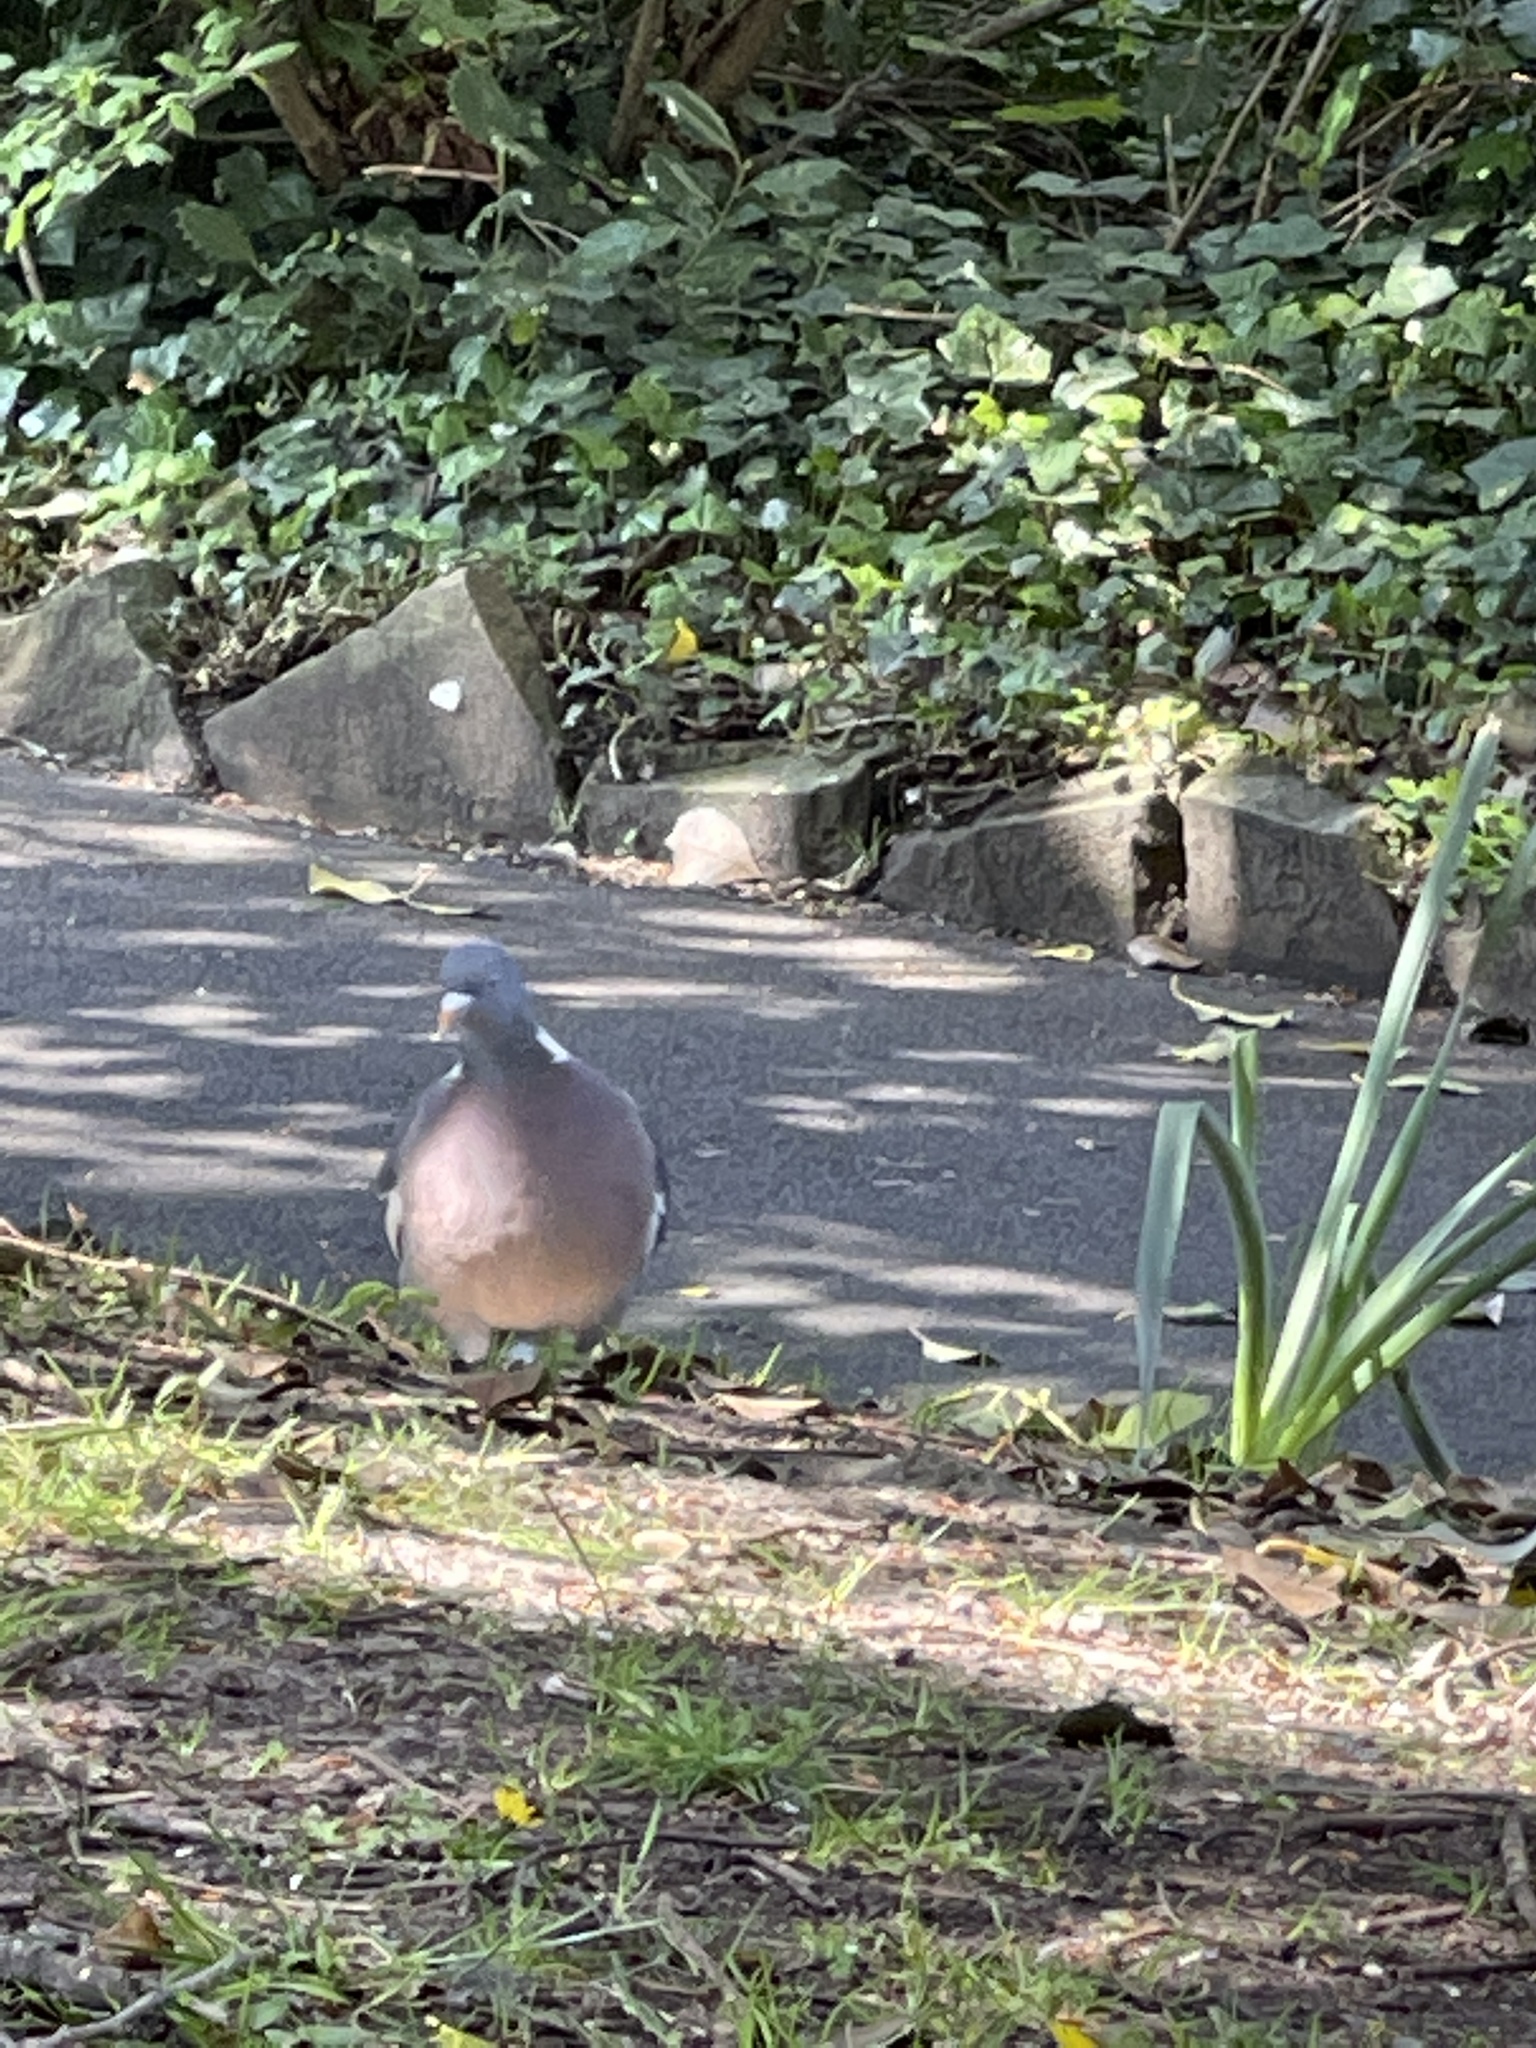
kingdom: Animalia
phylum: Chordata
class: Aves
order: Columbiformes
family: Columbidae
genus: Columba
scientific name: Columba palumbus
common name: Common wood pigeon
